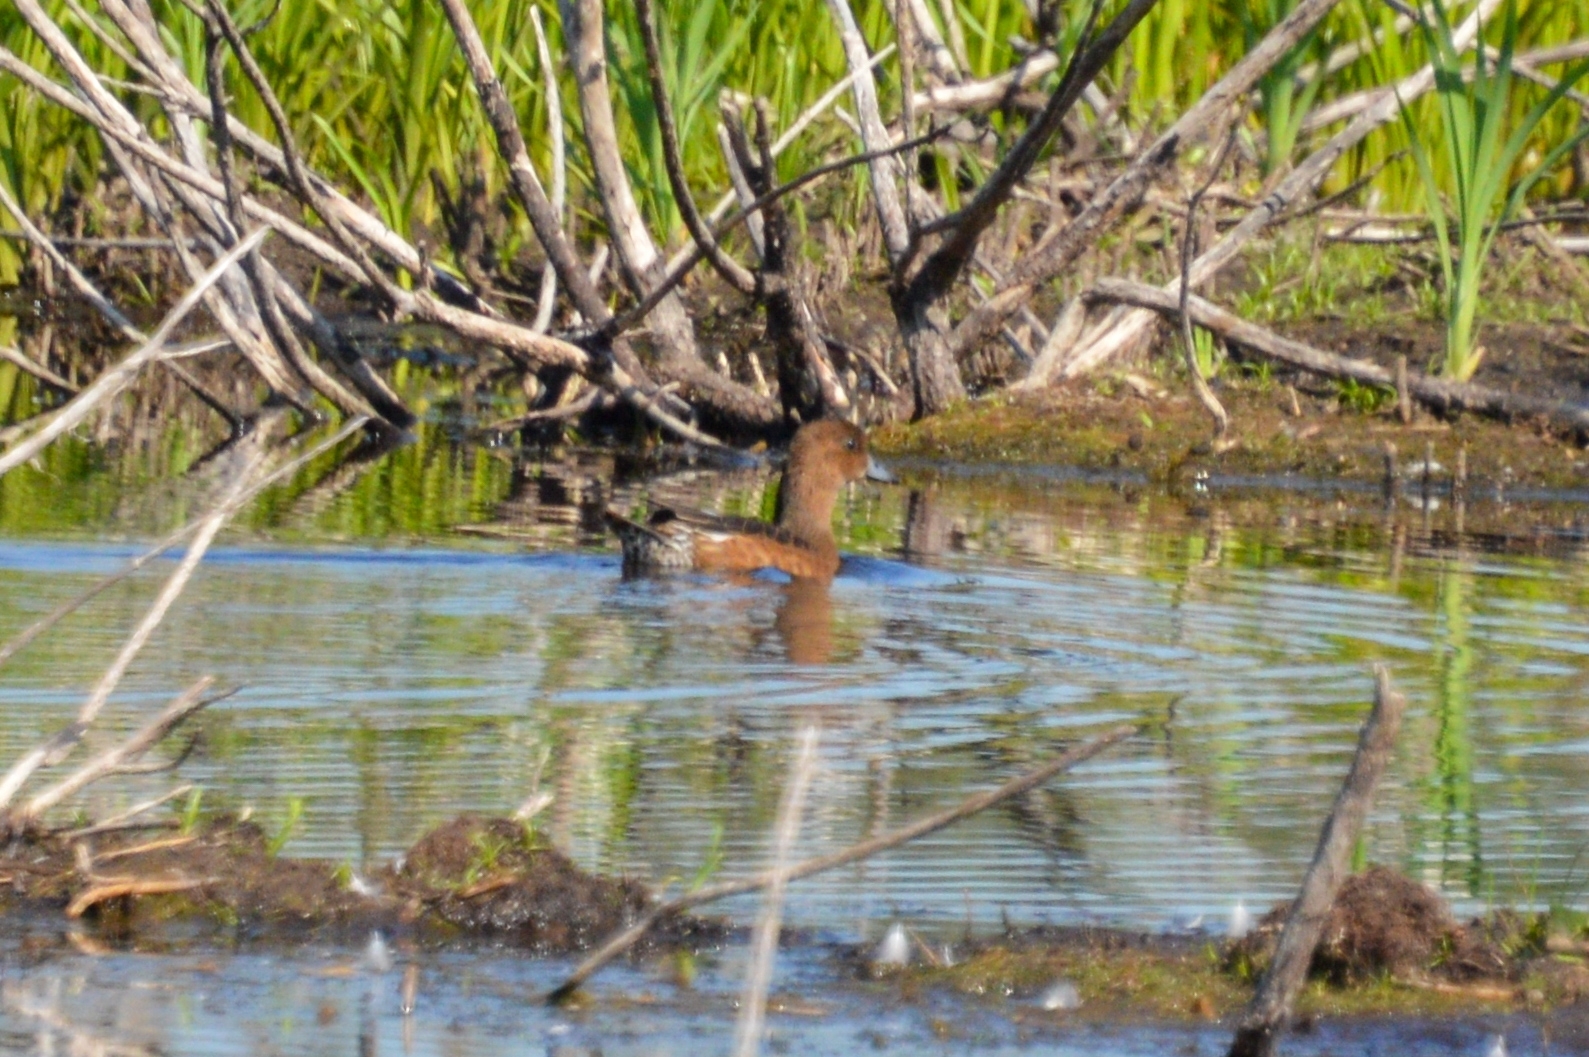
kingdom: Animalia
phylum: Chordata
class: Aves
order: Anseriformes
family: Anatidae
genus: Mareca
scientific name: Mareca penelope
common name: Eurasian wigeon
